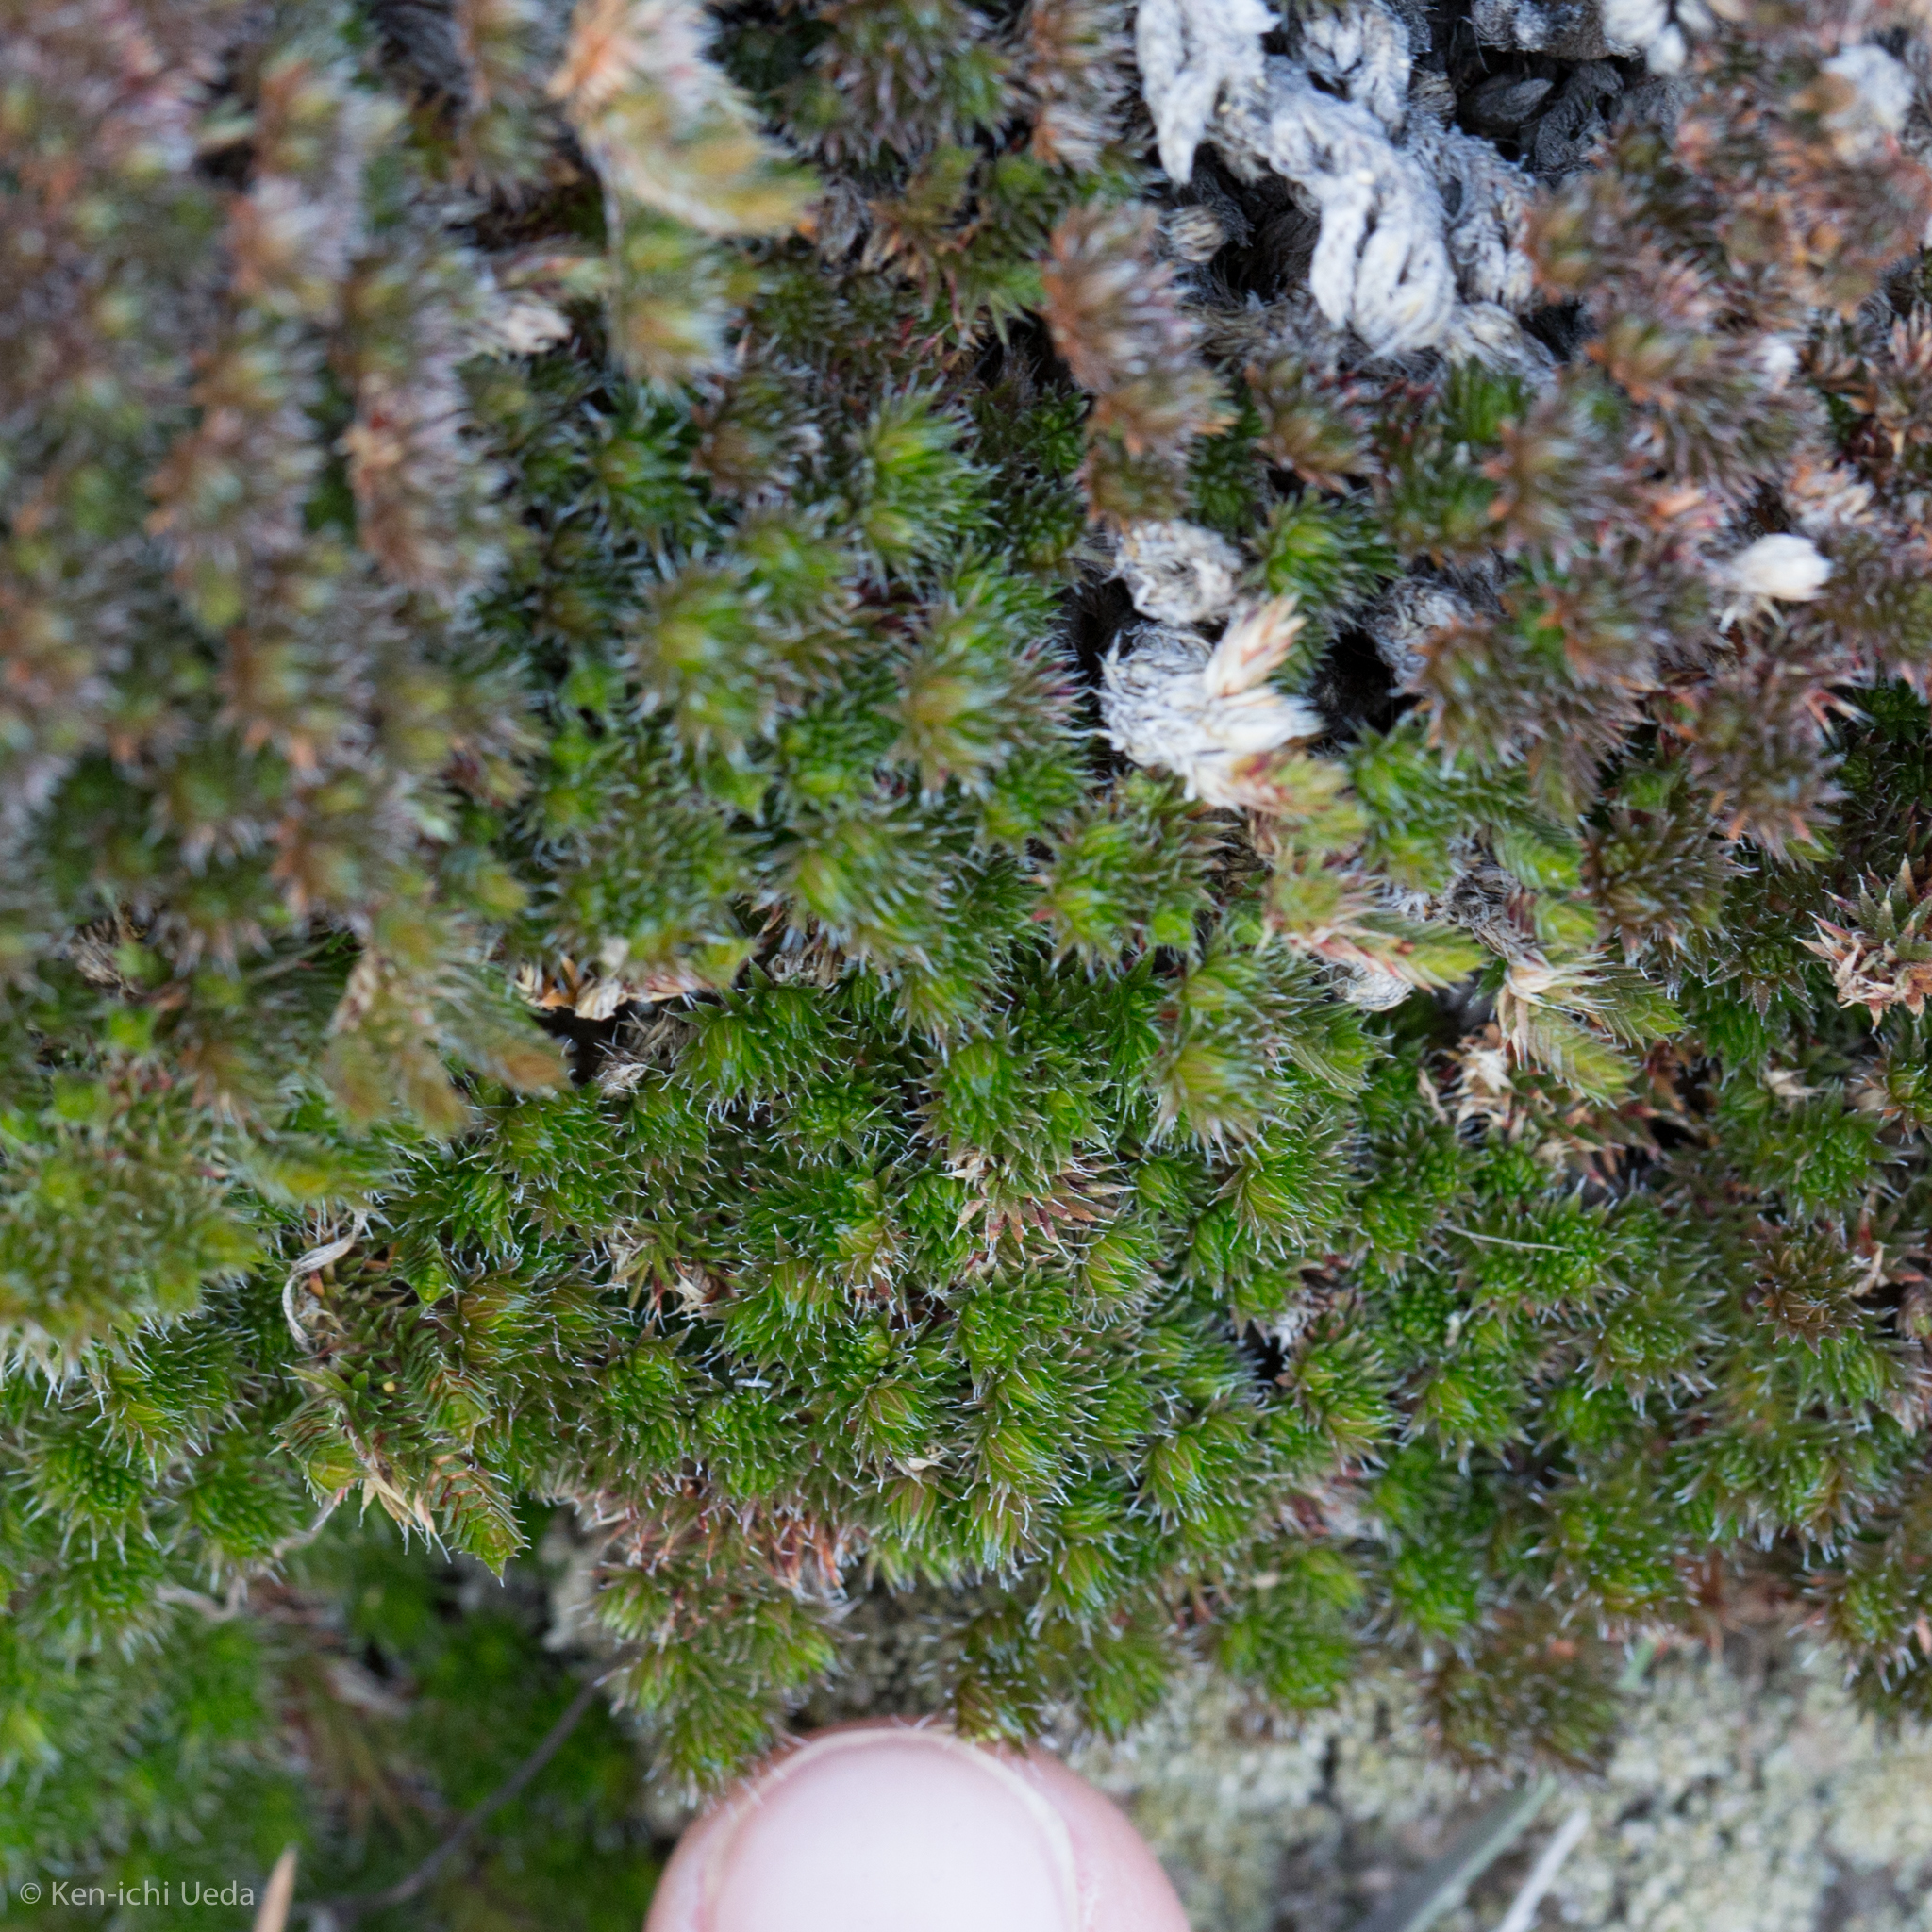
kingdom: Plantae
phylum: Tracheophyta
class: Lycopodiopsida
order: Selaginellales
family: Selaginellaceae
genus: Selaginella
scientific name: Selaginella hansenii
